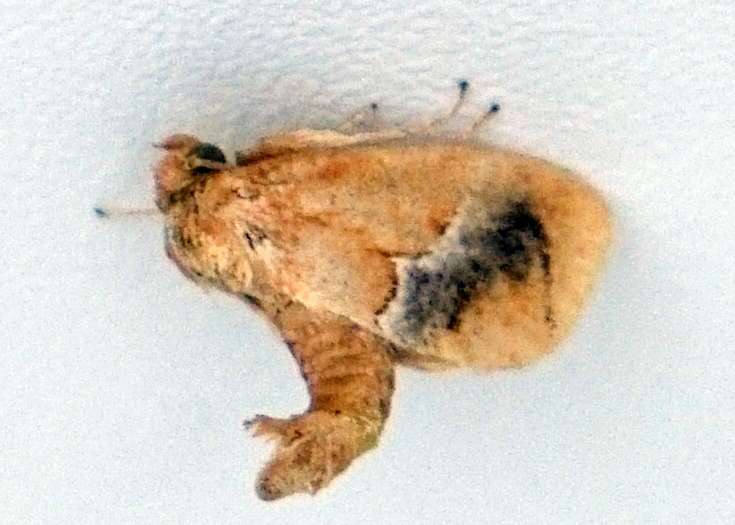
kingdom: Animalia
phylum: Arthropoda
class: Insecta
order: Lepidoptera
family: Limacodidae
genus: Lithacodes
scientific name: Lithacodes fasciola
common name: Yellow-shouldered slug moth
